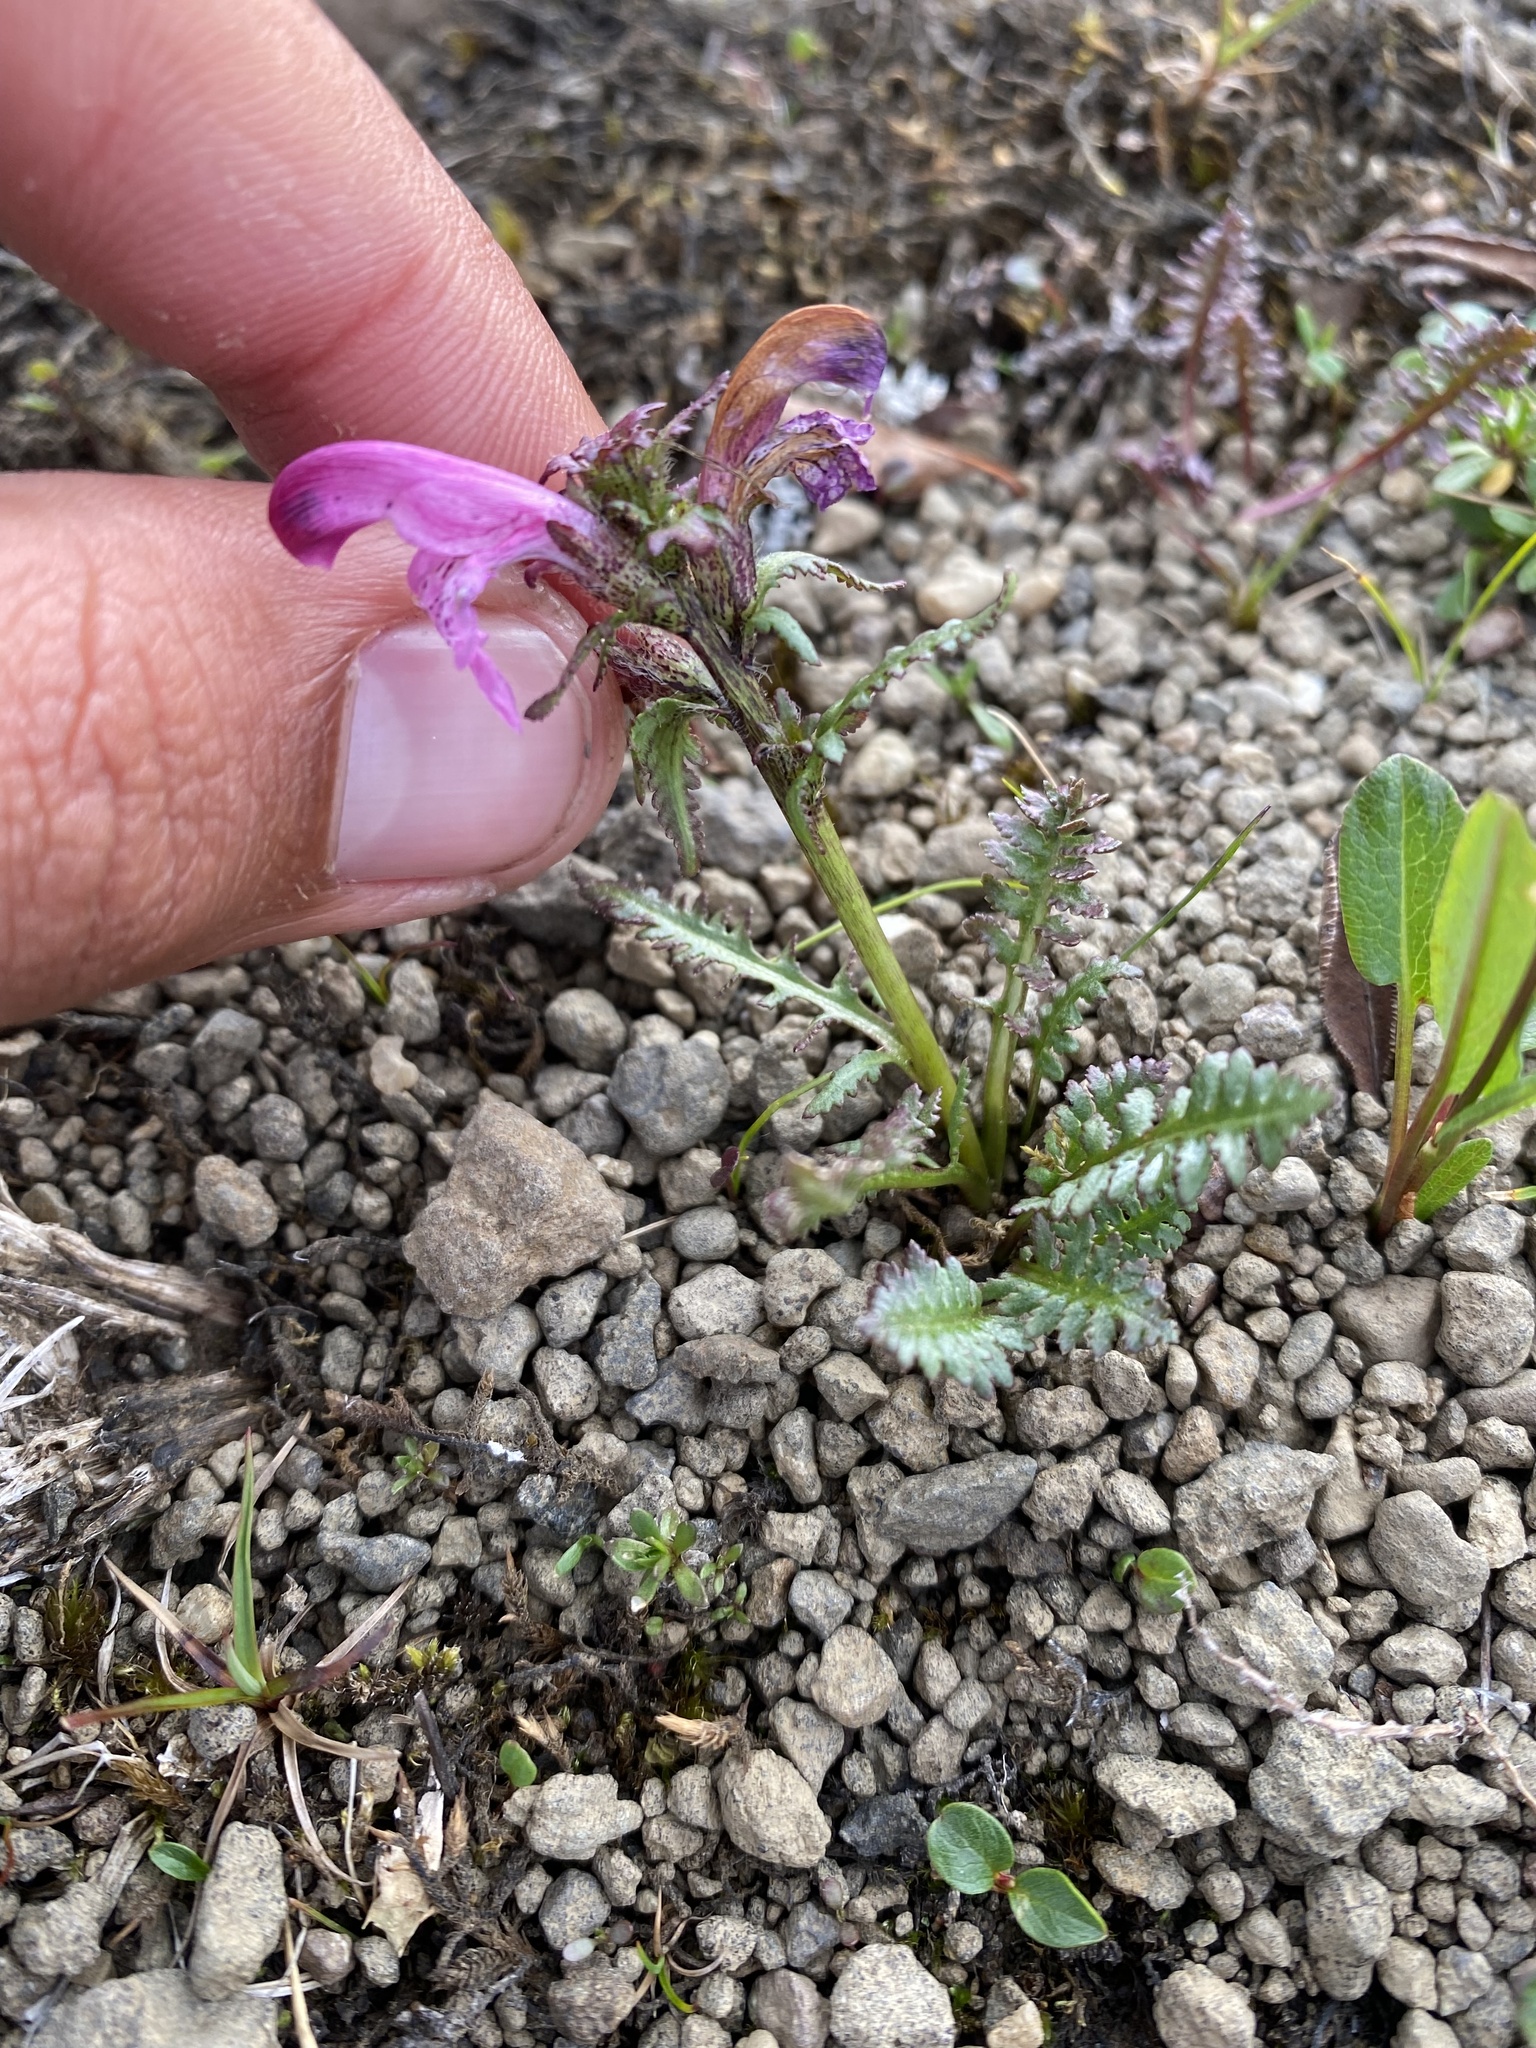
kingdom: Plantae
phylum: Tracheophyta
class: Magnoliopsida
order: Lamiales
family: Orobanchaceae
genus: Pedicularis
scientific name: Pedicularis interior
